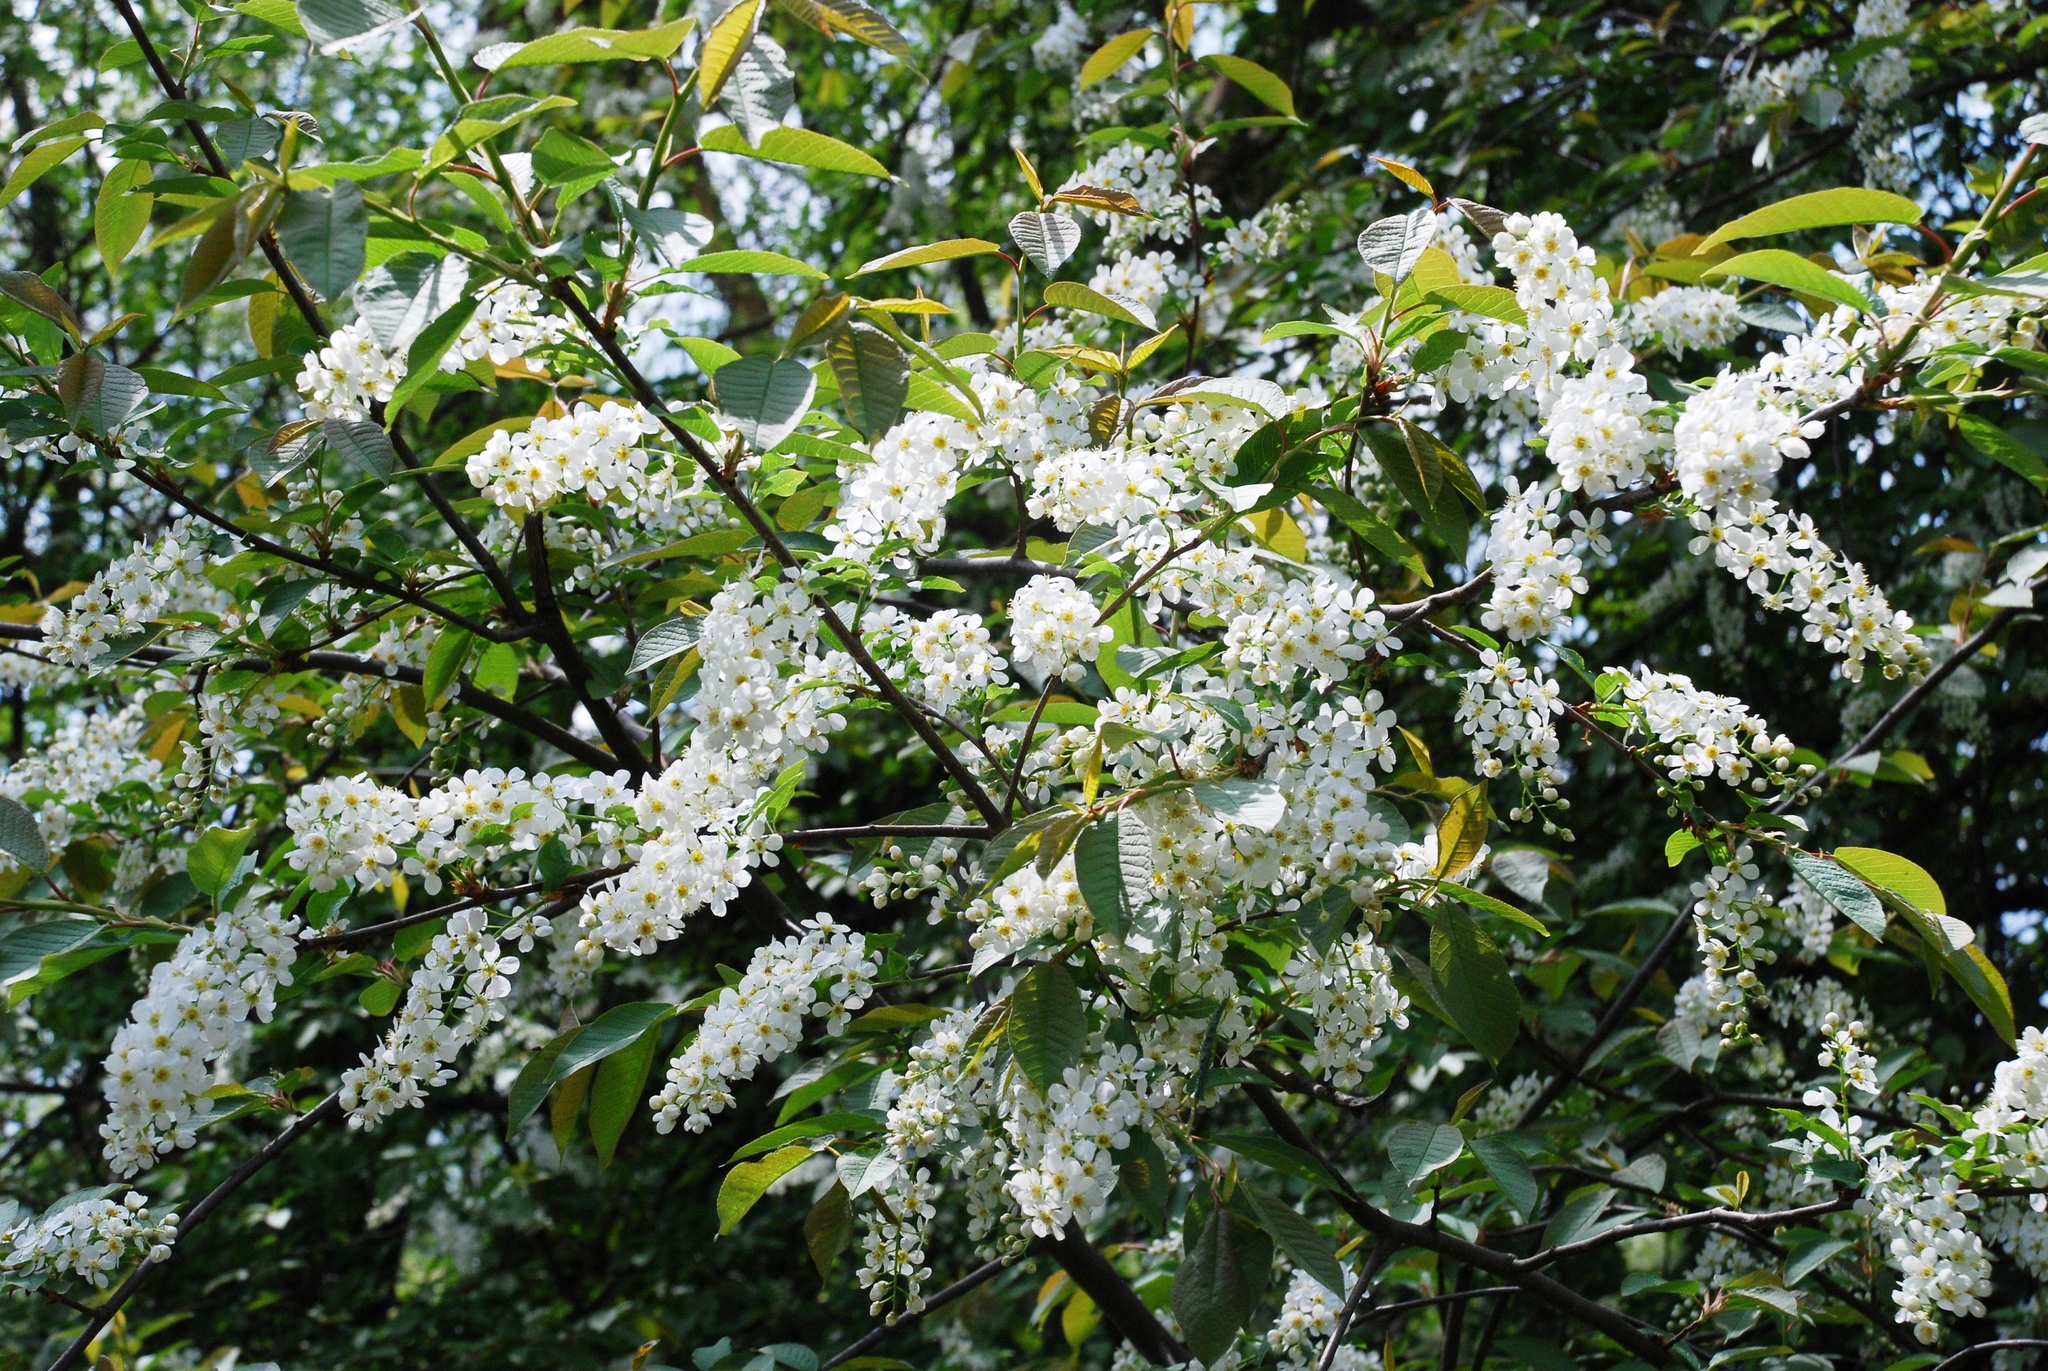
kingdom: Plantae
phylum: Tracheophyta
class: Magnoliopsida
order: Rosales
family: Rosaceae
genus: Prunus
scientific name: Prunus padus
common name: Bird cherry
